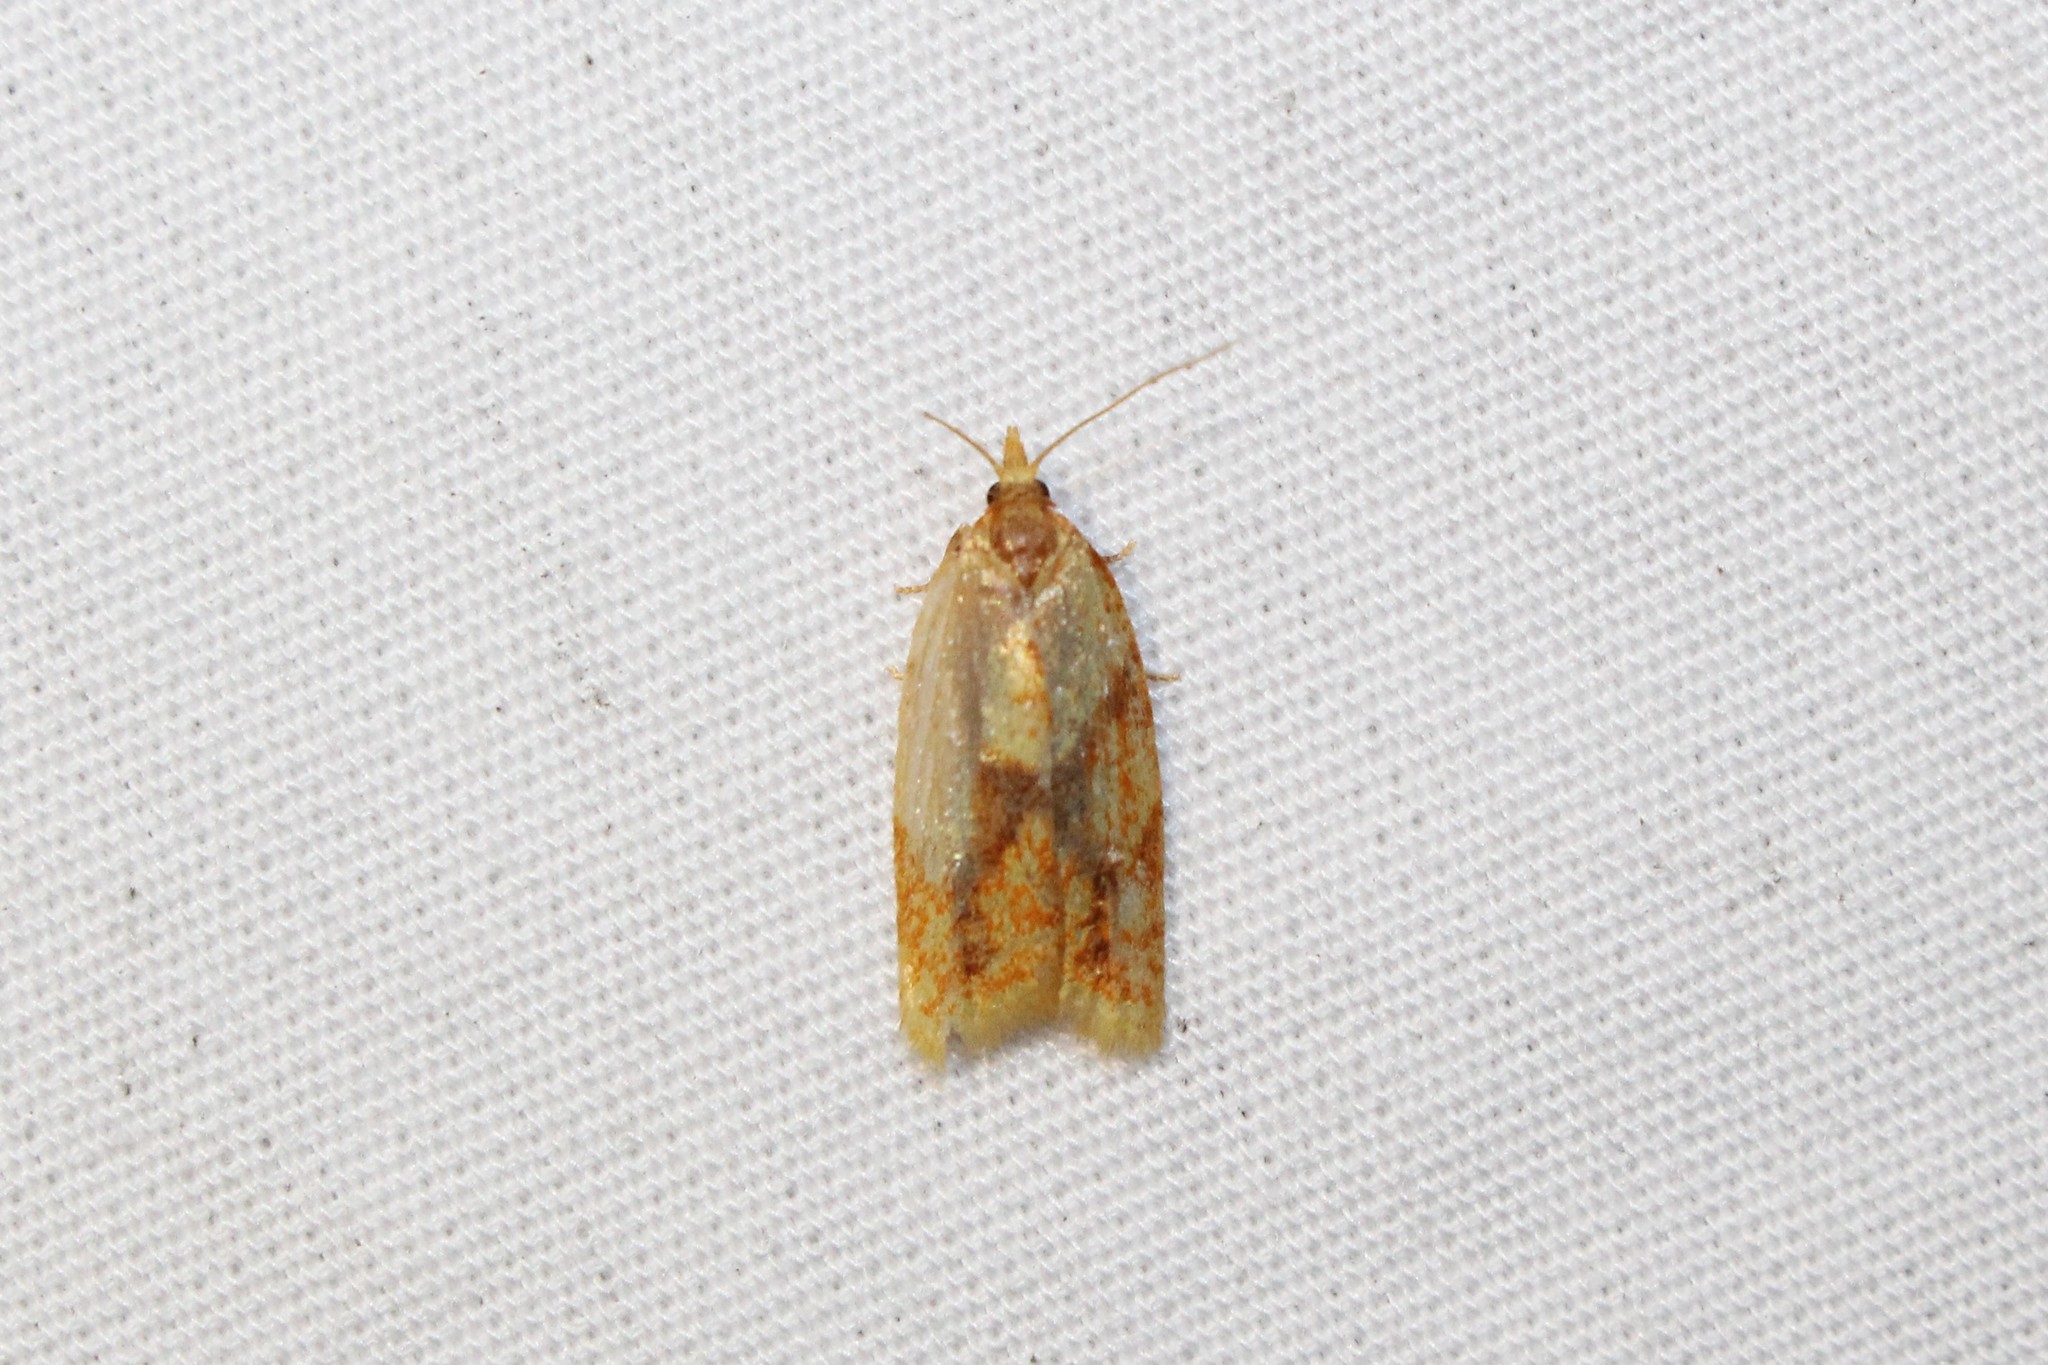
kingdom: Animalia
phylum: Arthropoda
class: Insecta
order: Lepidoptera
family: Tortricidae
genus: Sparganothis
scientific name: Sparganothis sulfureana
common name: Sparganothis fruitworm moth
